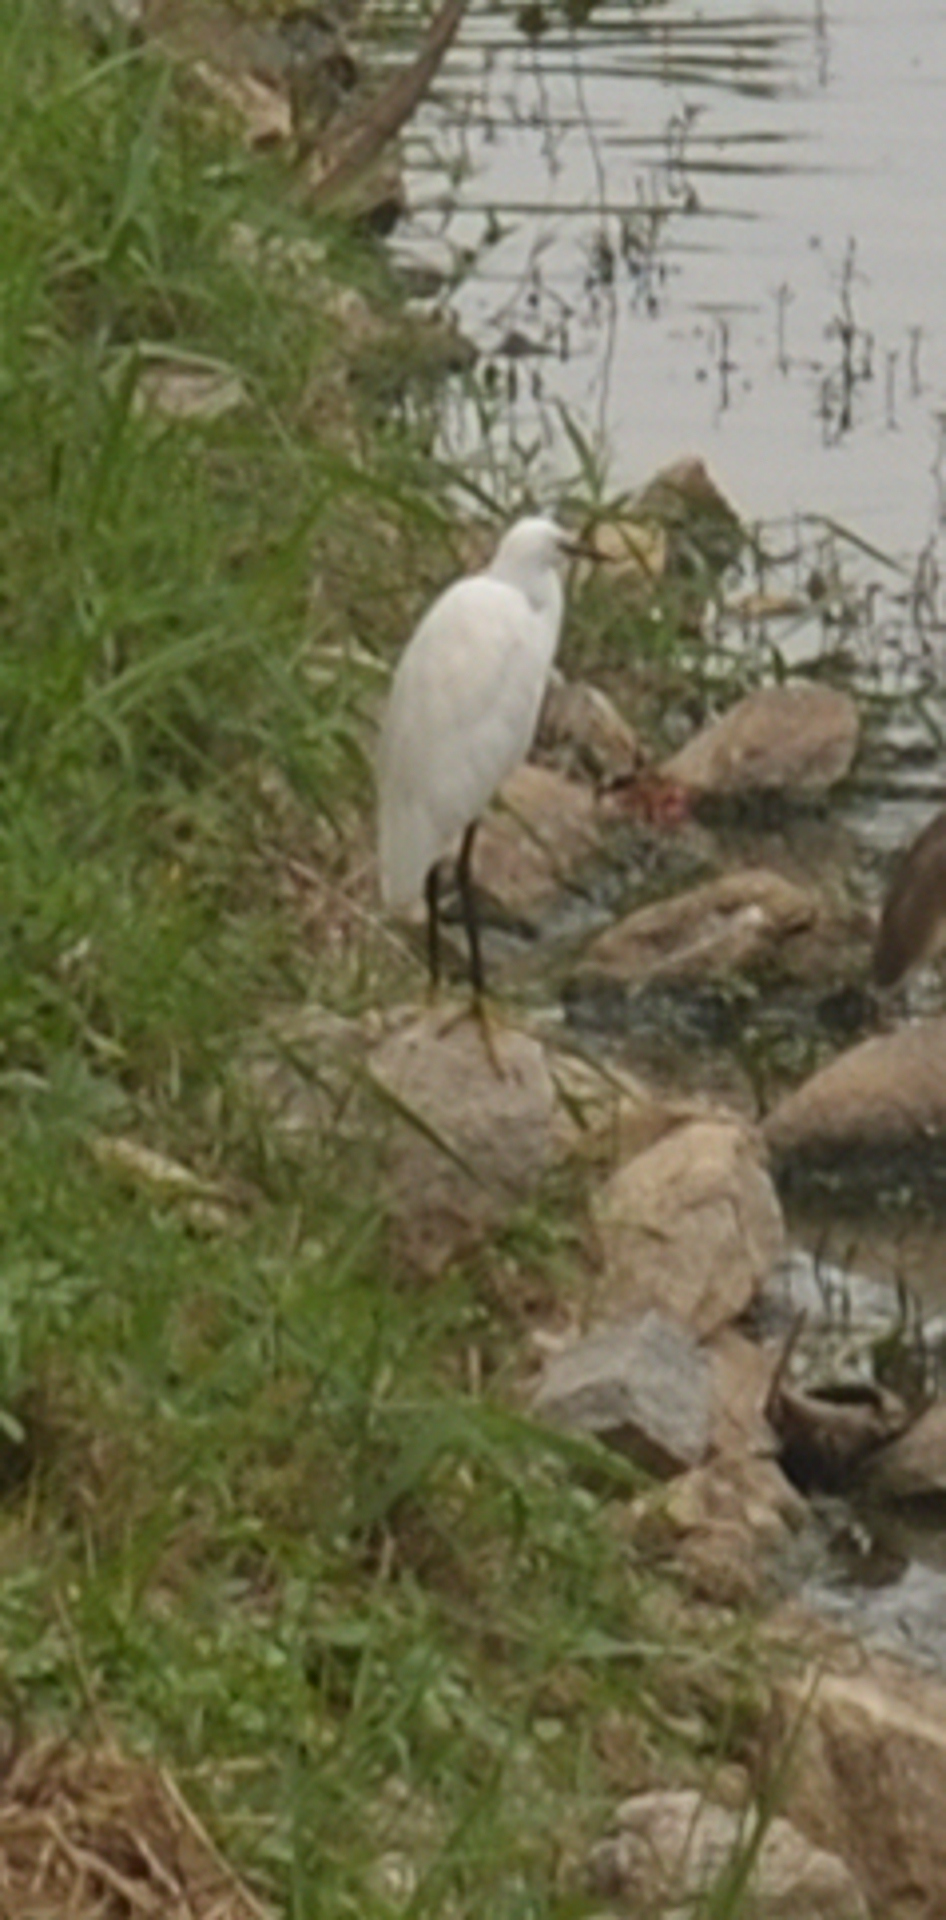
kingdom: Animalia
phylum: Chordata
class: Aves
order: Pelecaniformes
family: Ardeidae
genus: Egretta
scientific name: Egretta garzetta
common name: Little egret
